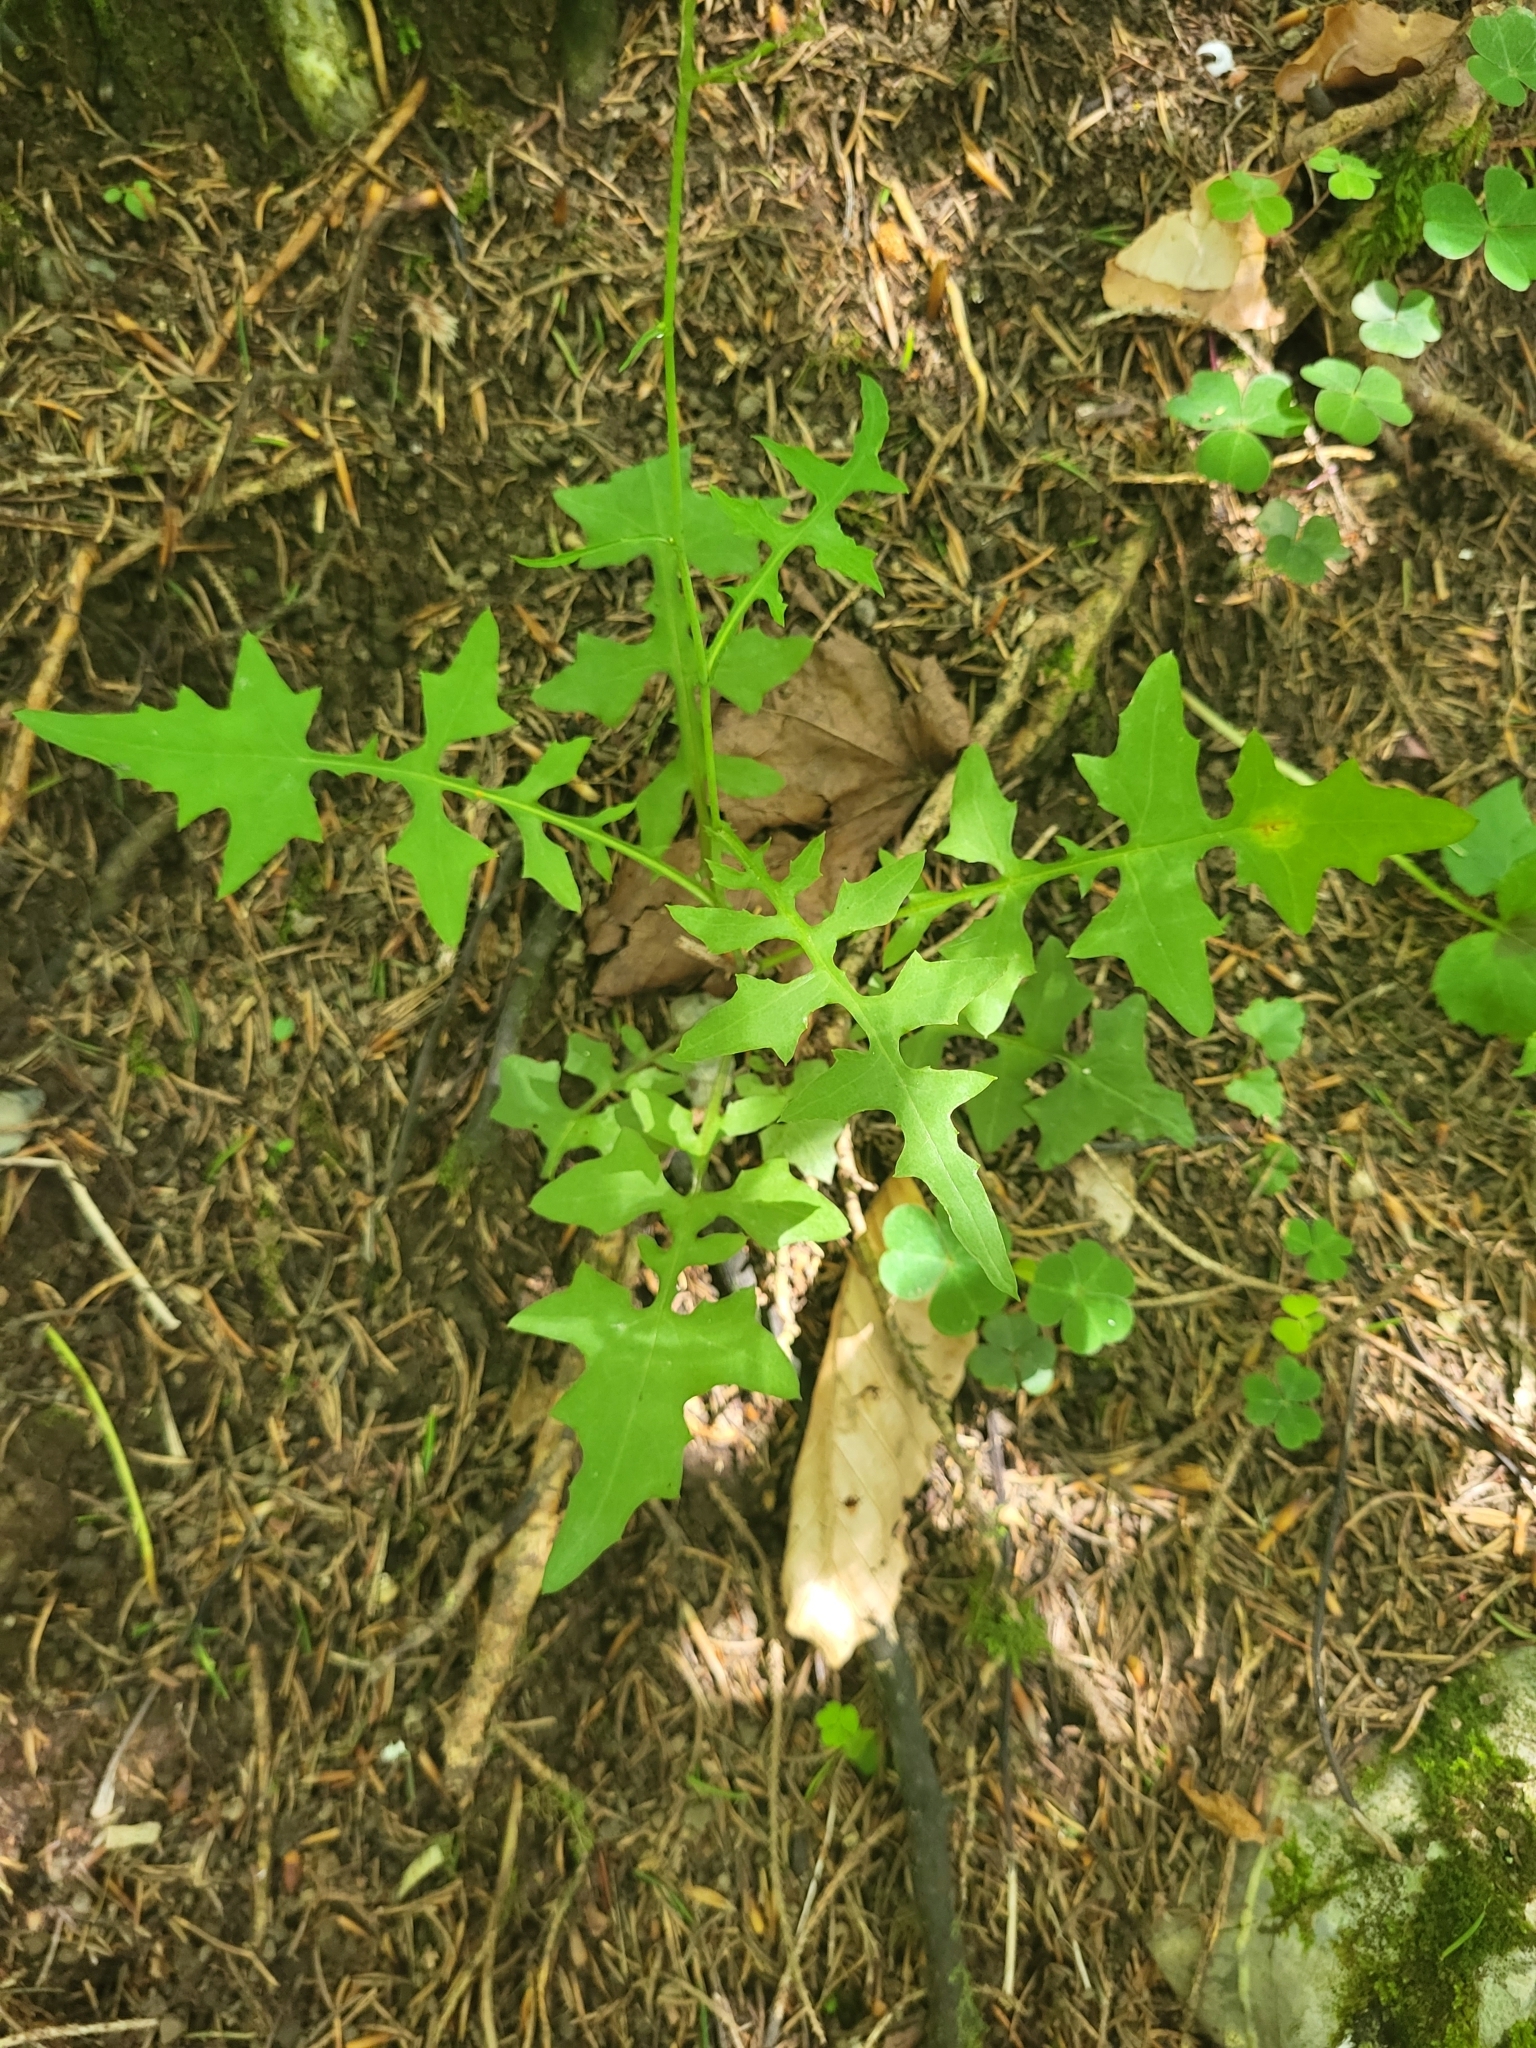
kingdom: Plantae
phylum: Tracheophyta
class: Magnoliopsida
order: Asterales
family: Asteraceae
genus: Mycelis
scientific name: Mycelis muralis
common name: Wall lettuce
